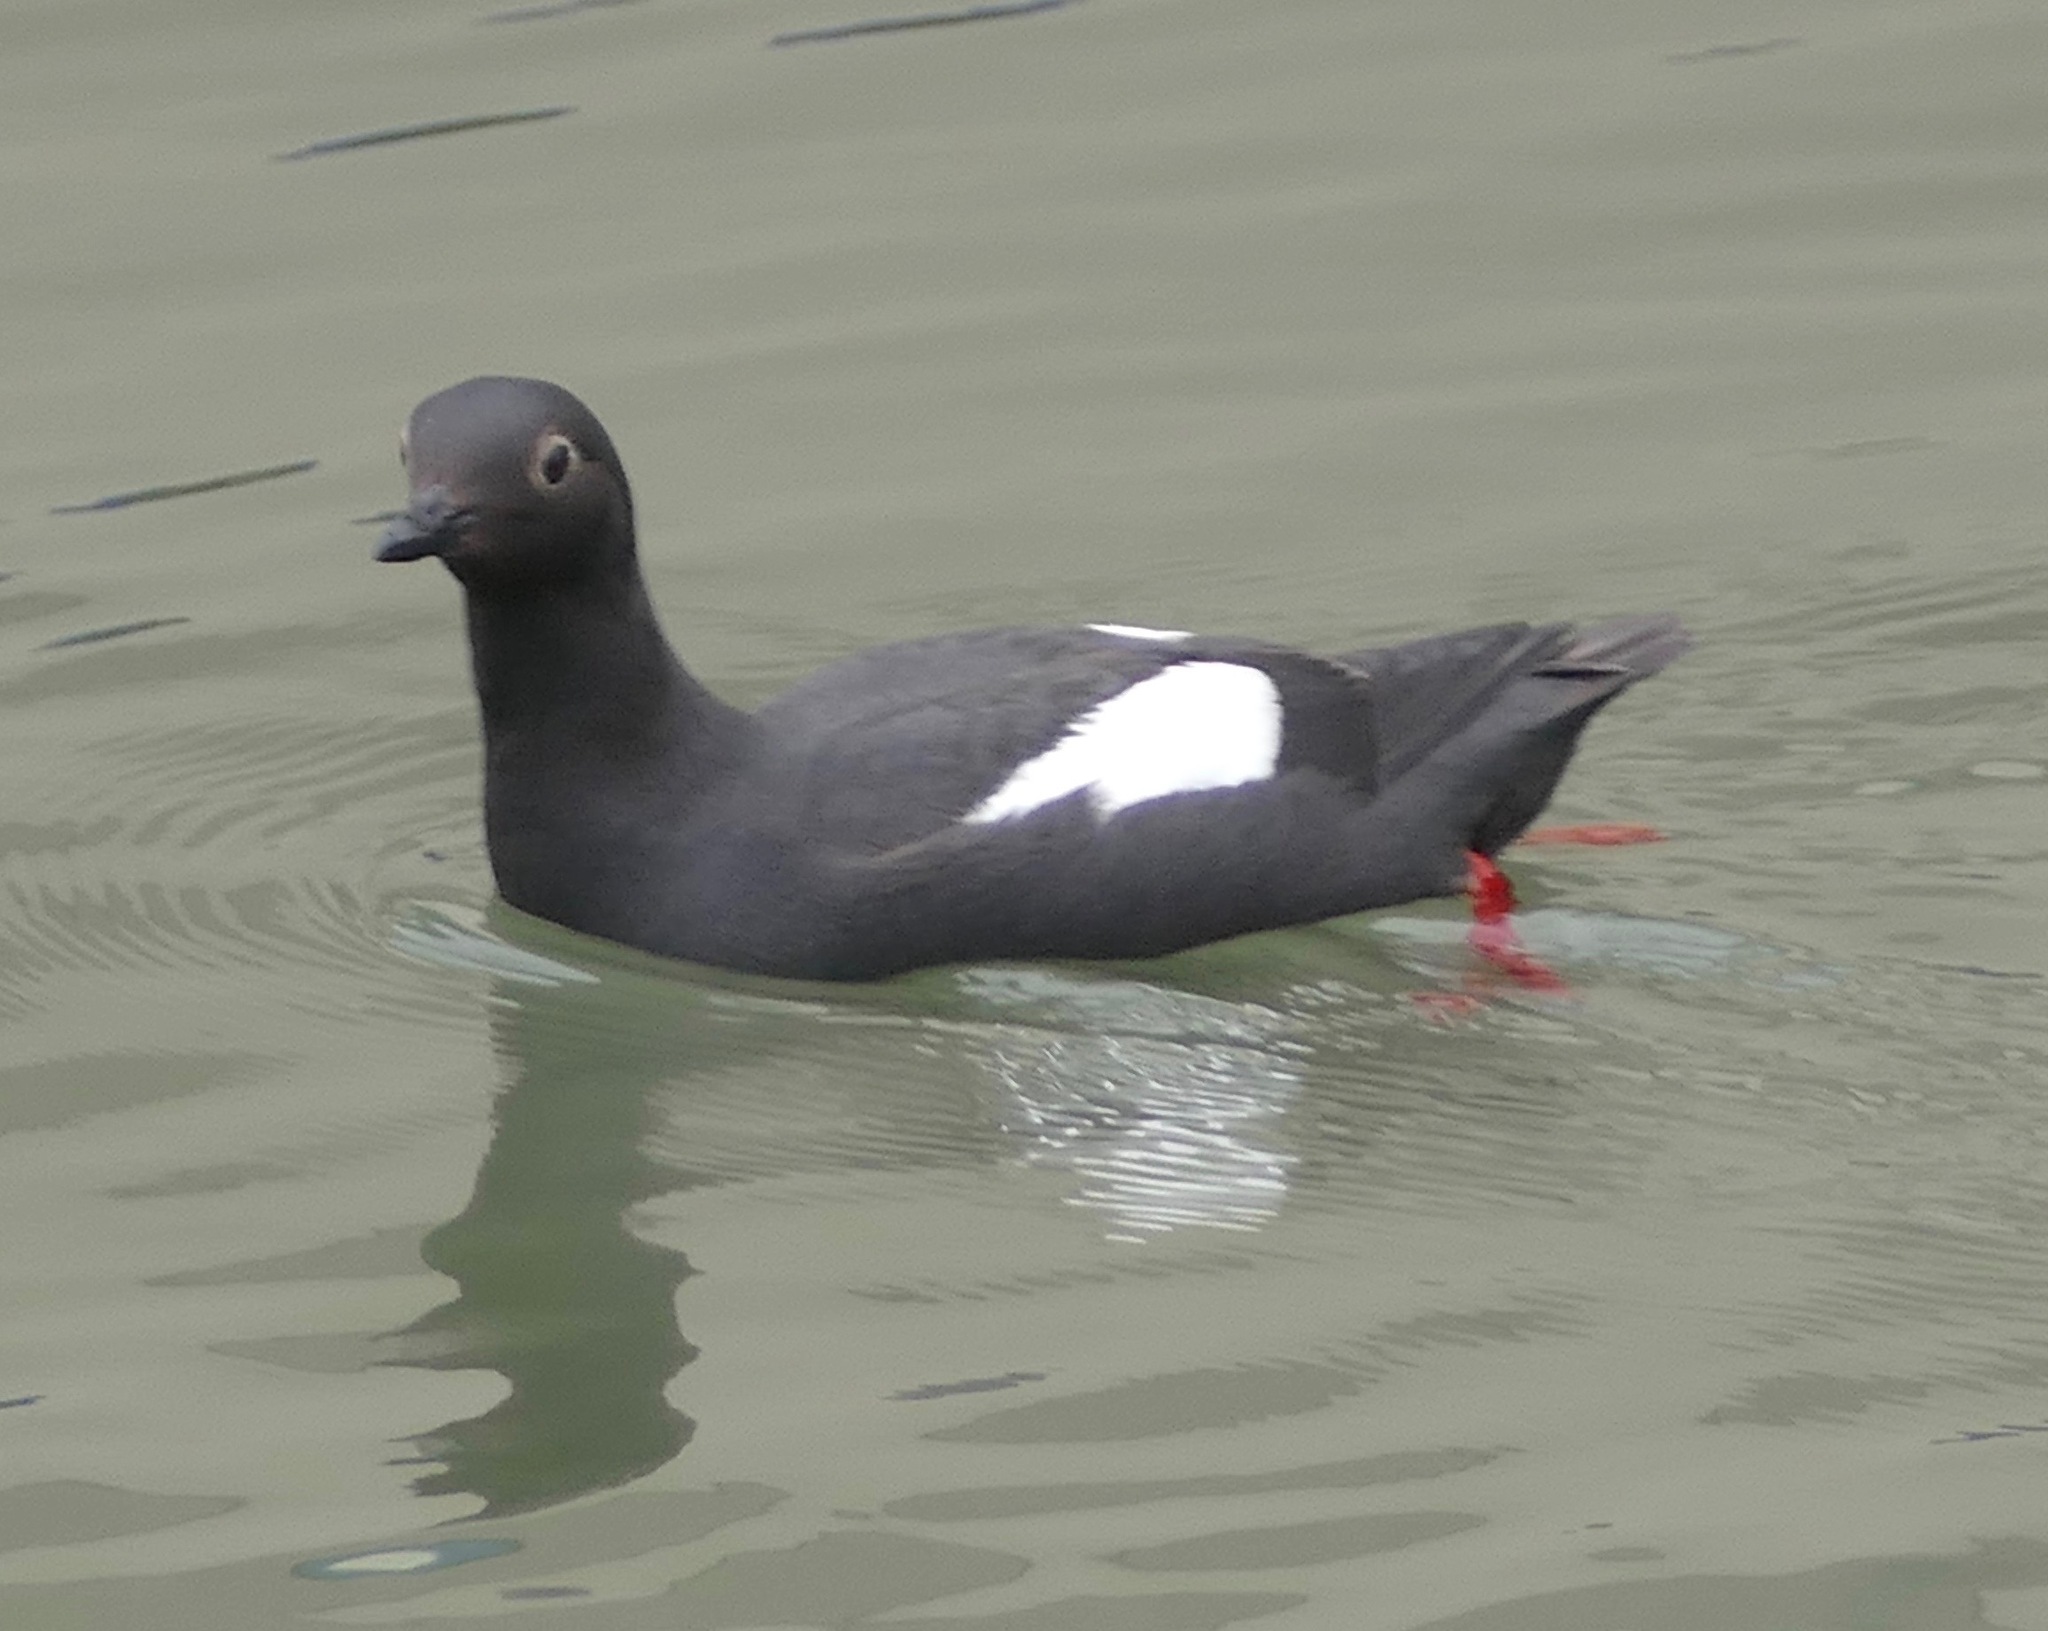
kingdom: Animalia
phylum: Chordata
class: Aves
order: Charadriiformes
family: Alcidae
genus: Cepphus
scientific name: Cepphus columba
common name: Pigeon guillemot
